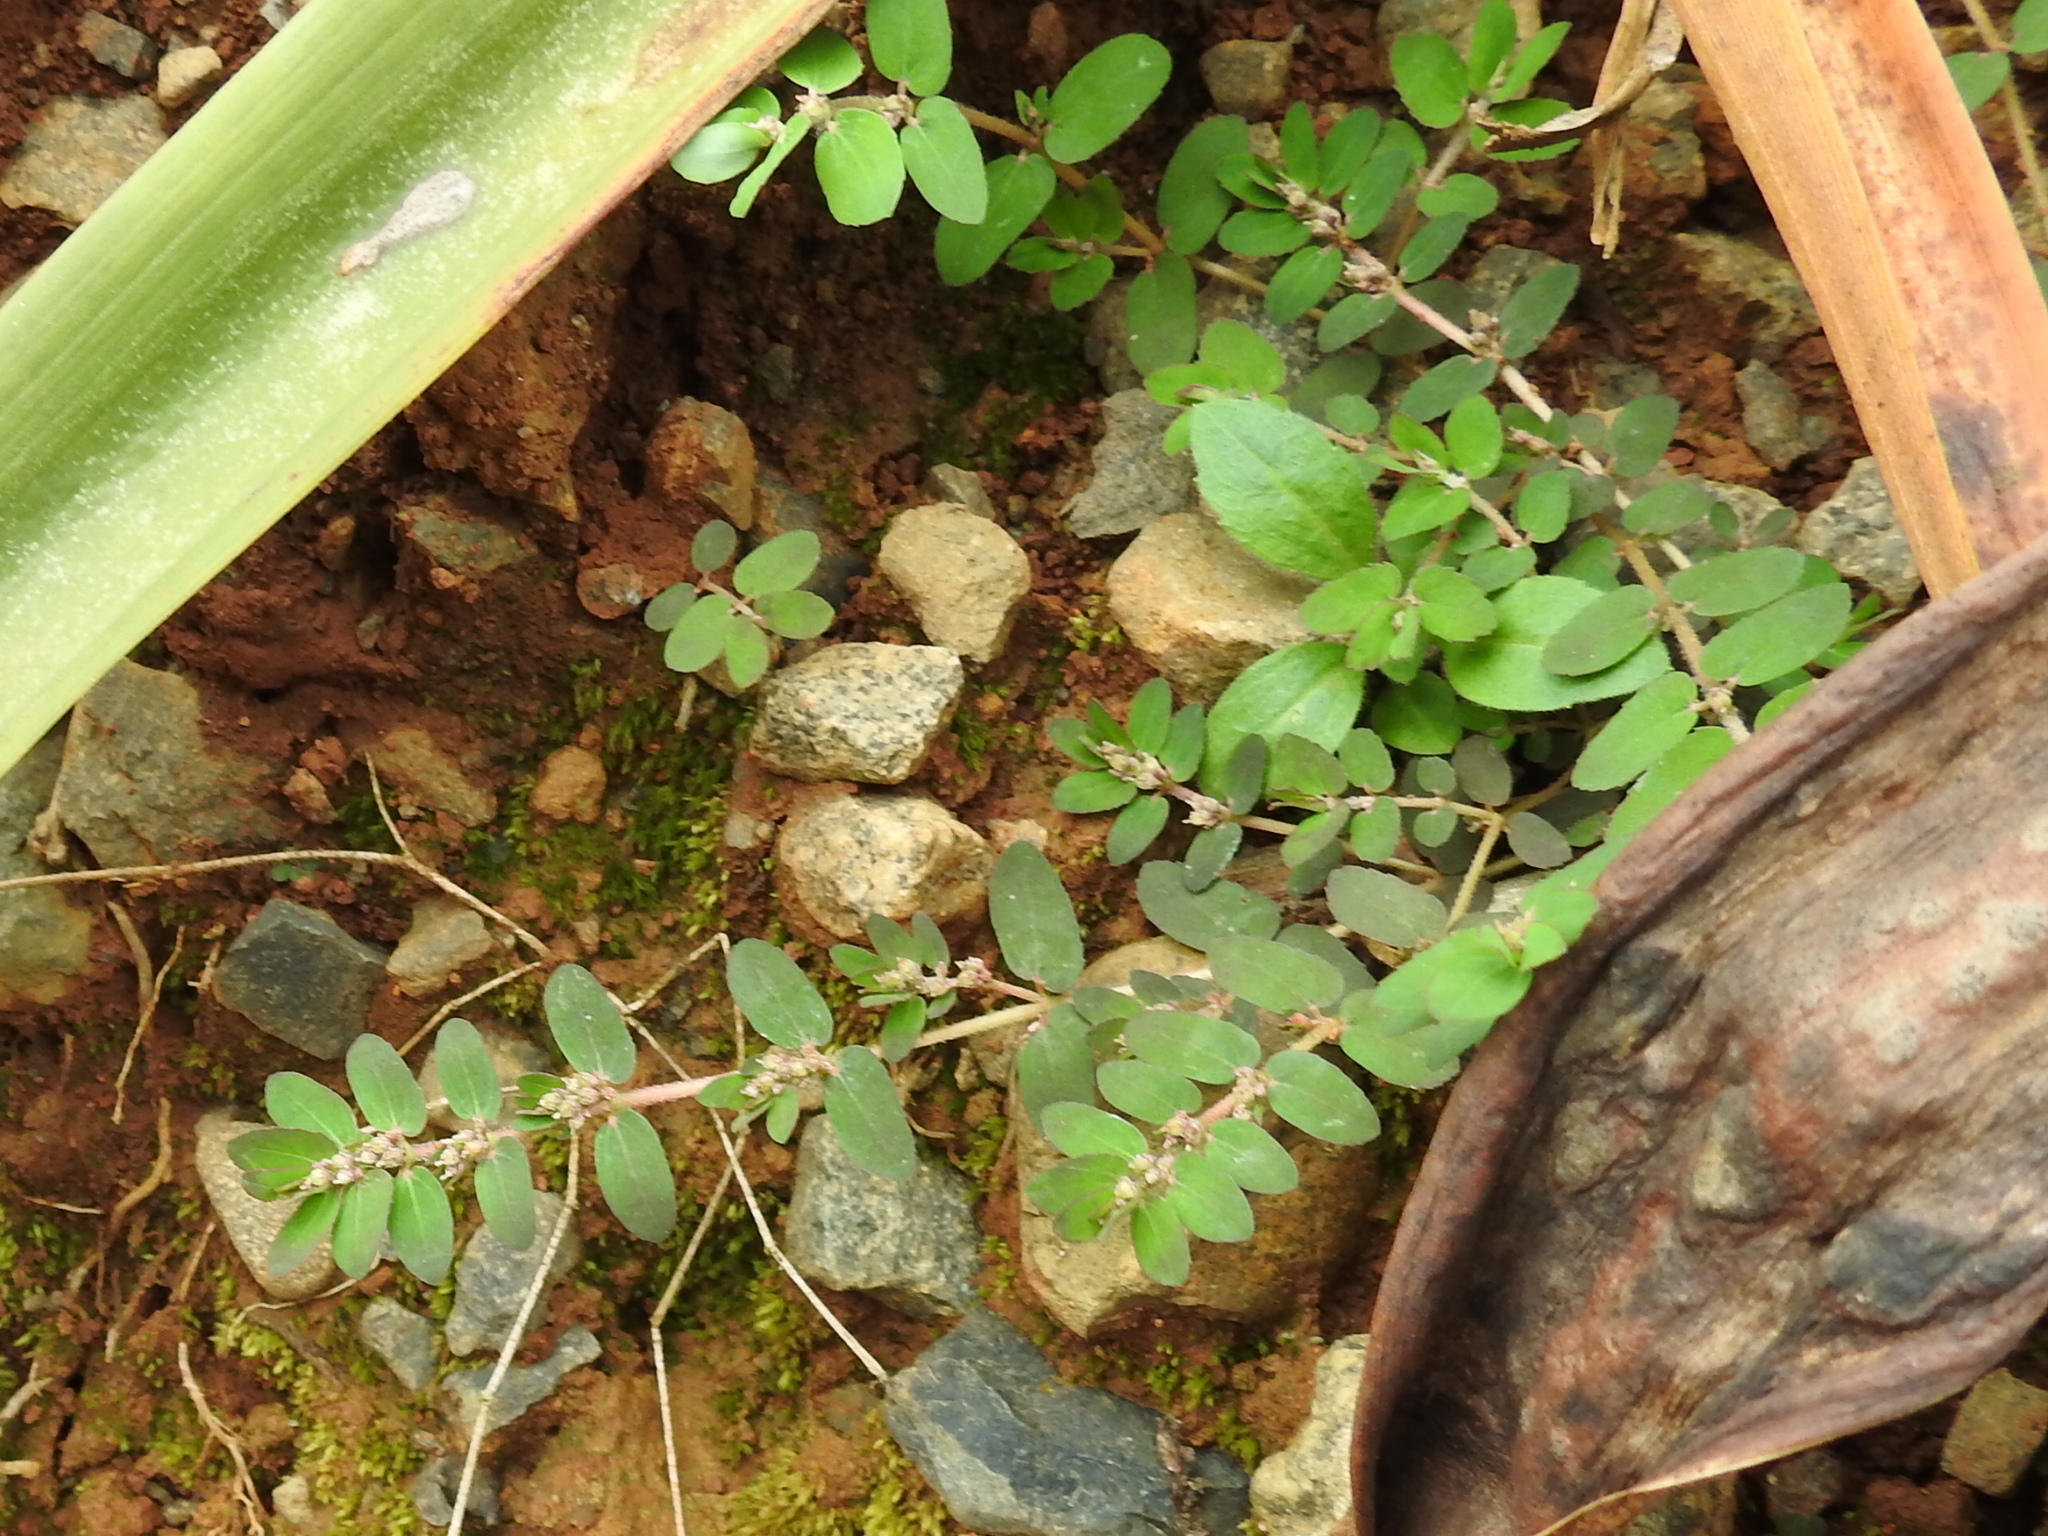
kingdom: Plantae
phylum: Tracheophyta
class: Magnoliopsida
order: Malpighiales
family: Euphorbiaceae
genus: Euphorbia
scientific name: Euphorbia thymifolia
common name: Gulf sandmat
